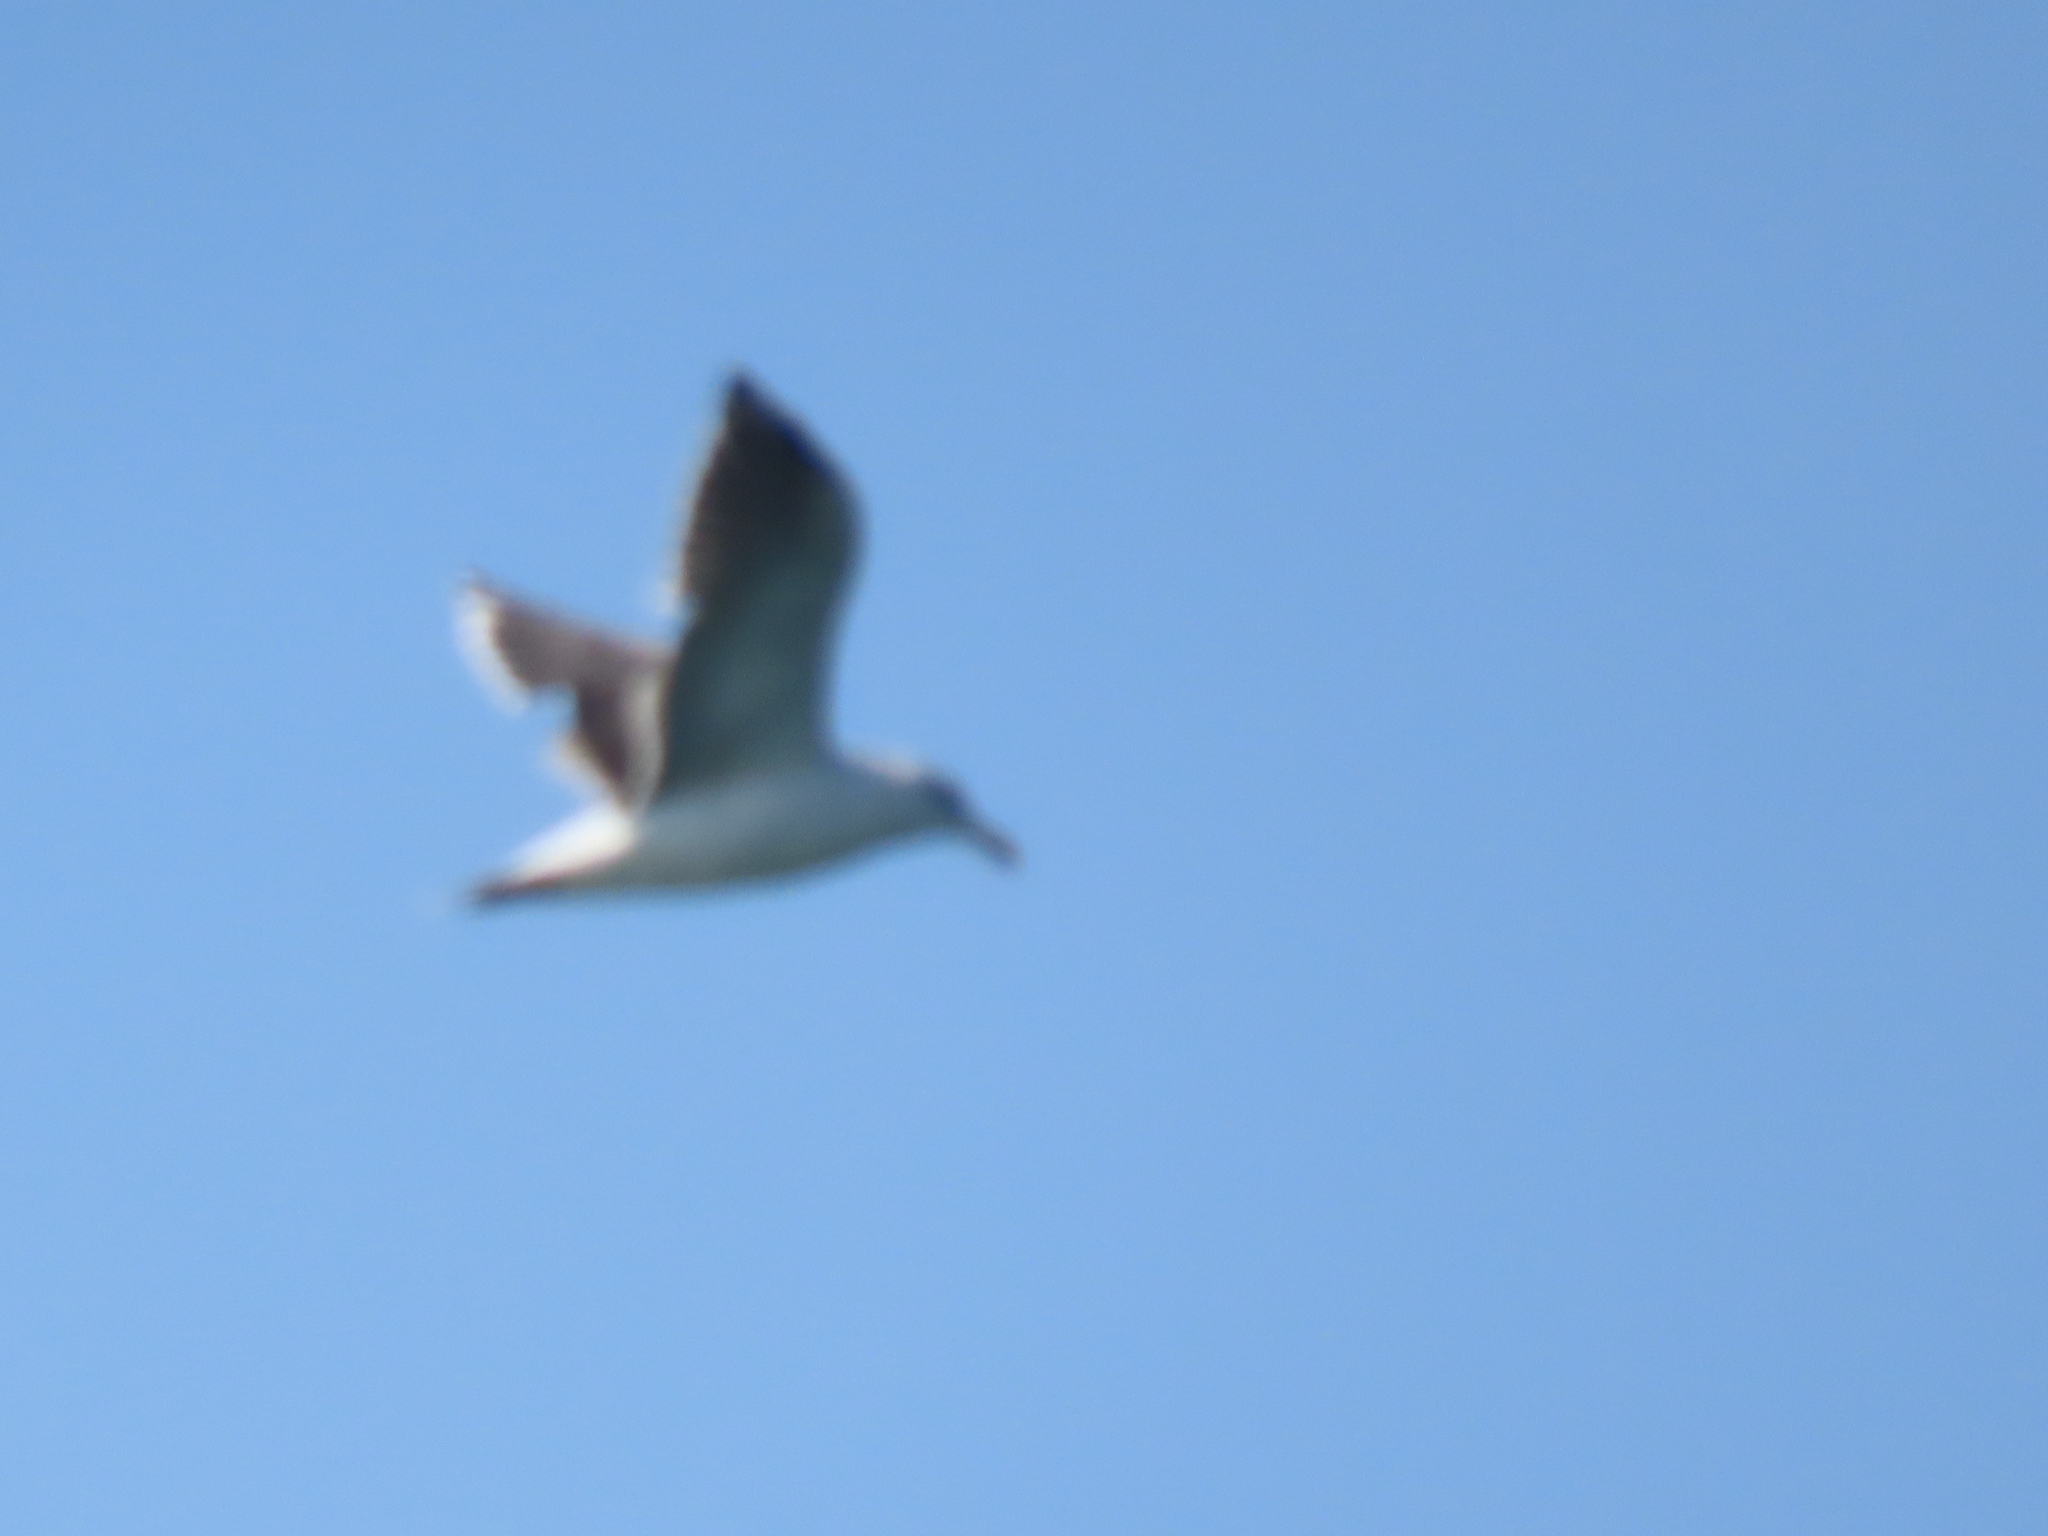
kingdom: Animalia
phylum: Chordata
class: Aves
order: Charadriiformes
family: Laridae
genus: Larus
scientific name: Larus marinus
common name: Great black-backed gull
